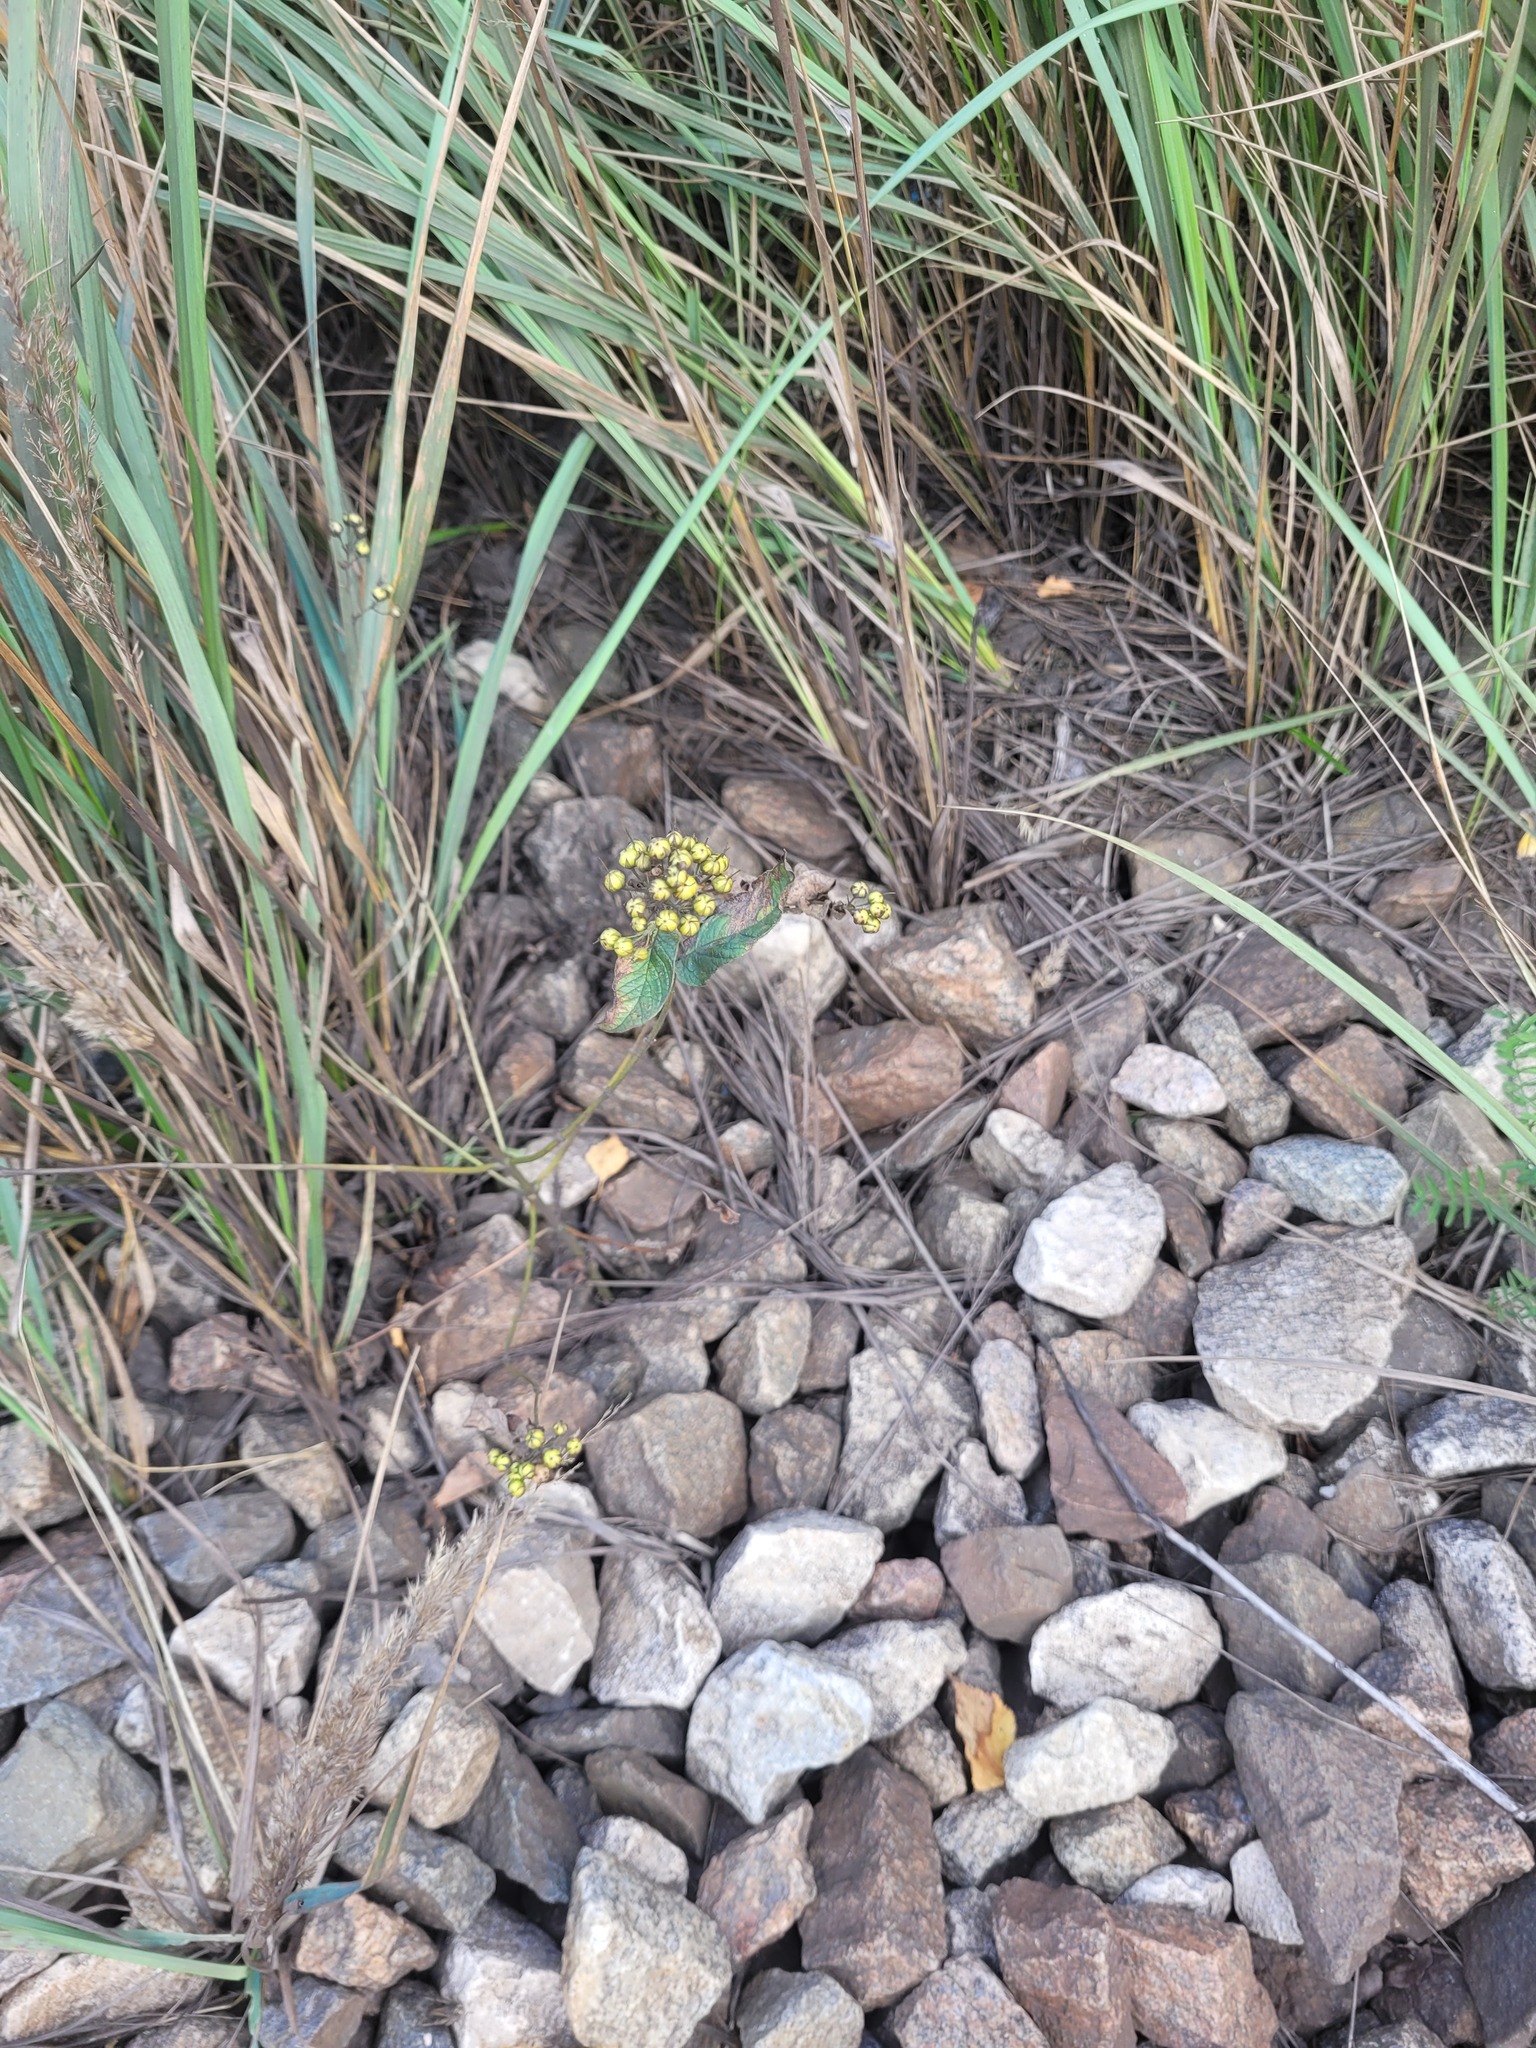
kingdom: Plantae
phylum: Tracheophyta
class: Magnoliopsida
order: Ericales
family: Primulaceae
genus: Lysimachia
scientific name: Lysimachia vulgaris
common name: Yellow loosestrife
